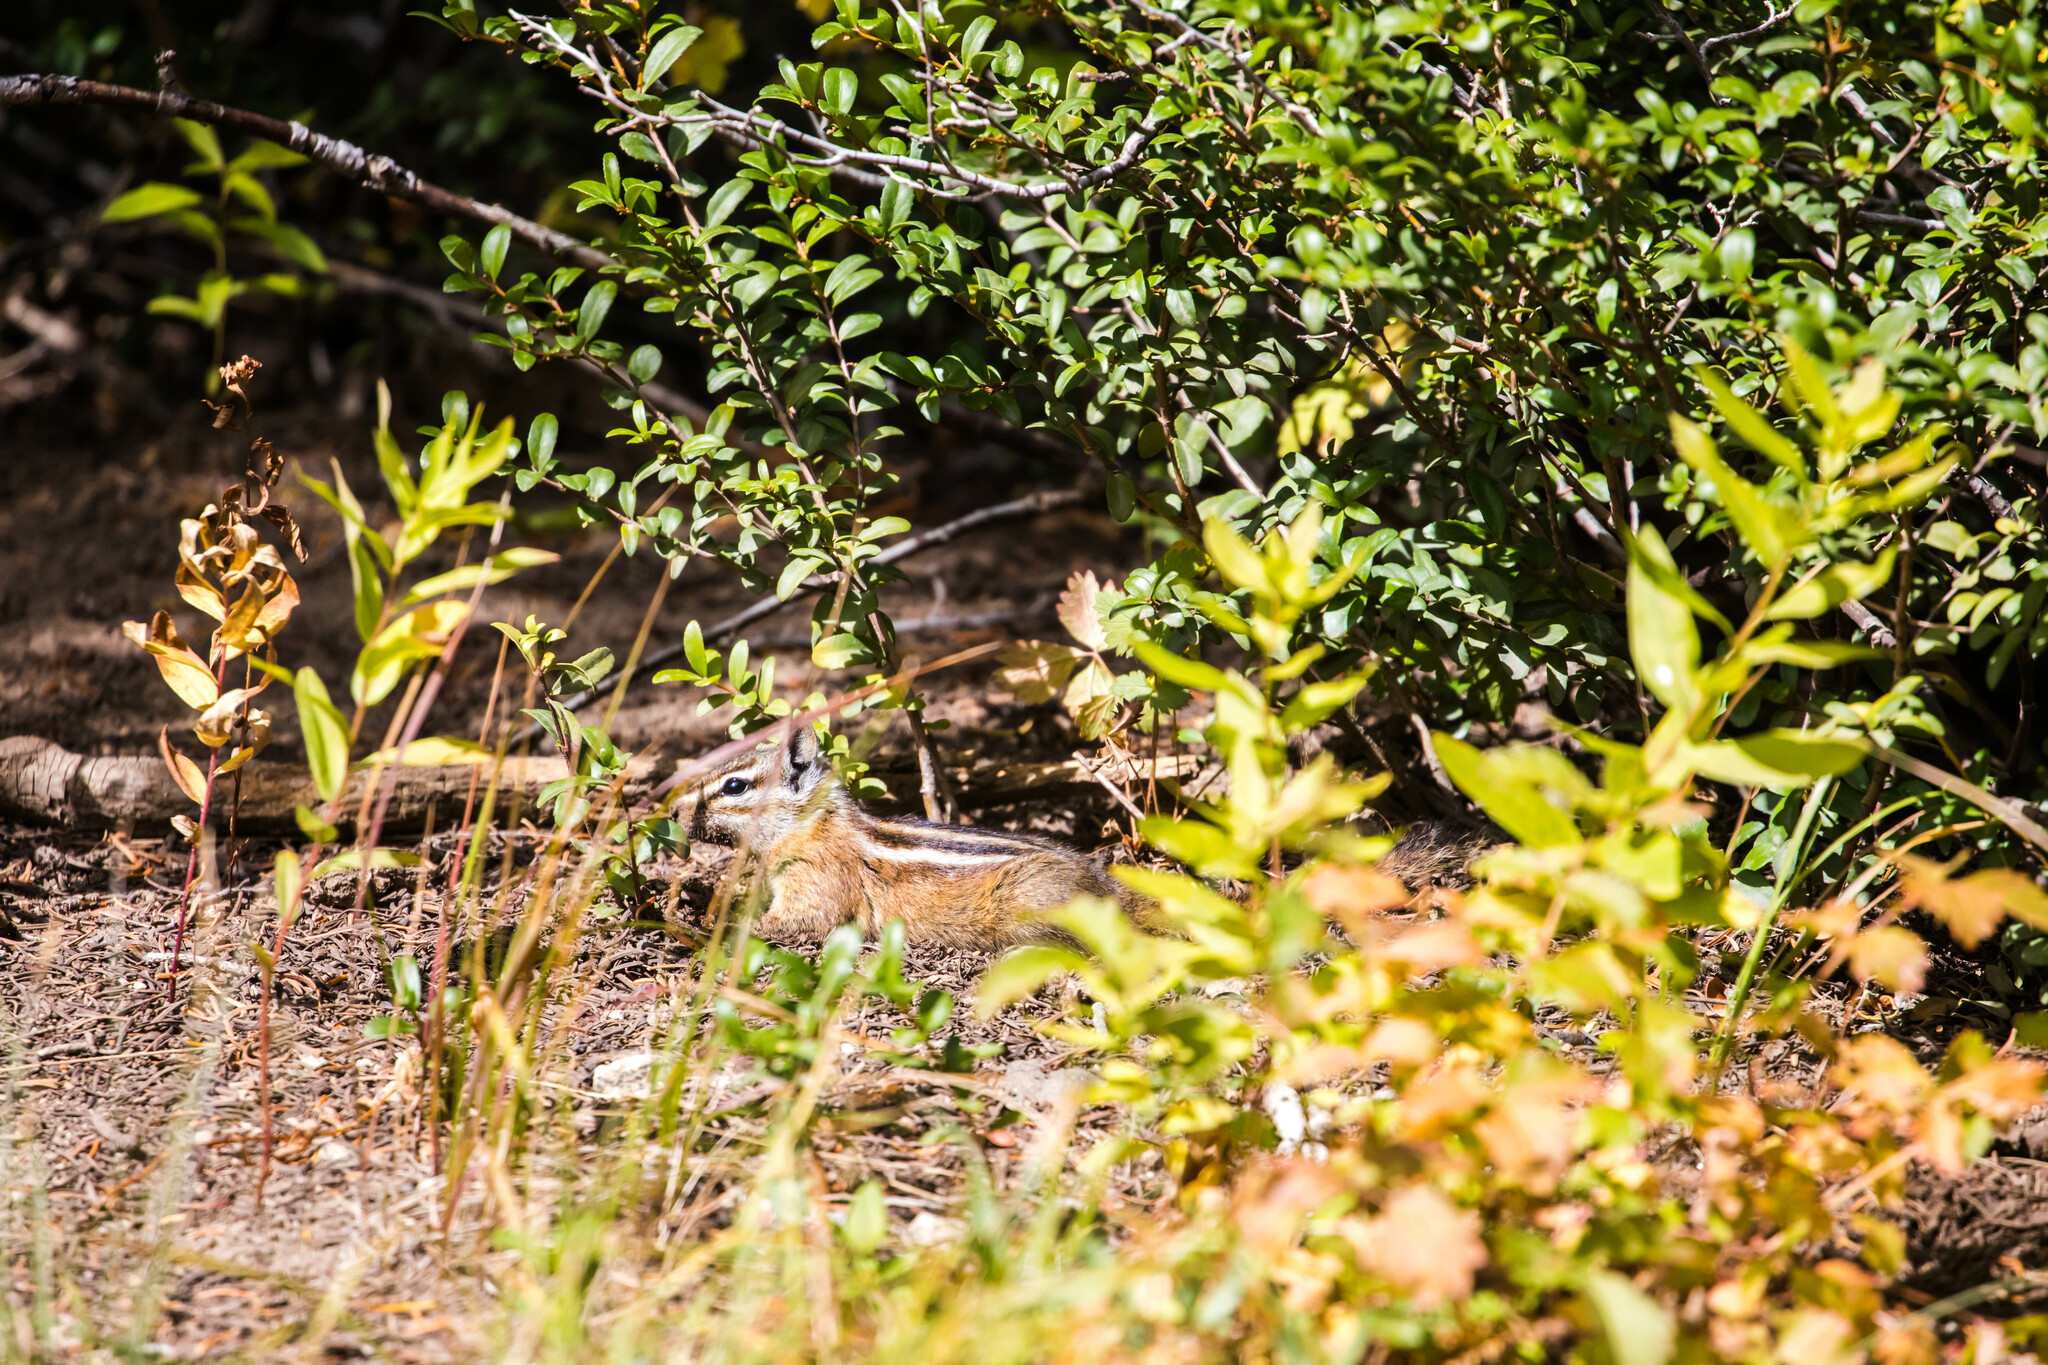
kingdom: Animalia
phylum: Chordata
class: Mammalia
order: Rodentia
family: Sciuridae
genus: Tamias
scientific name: Tamias minimus
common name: Least chipmunk
